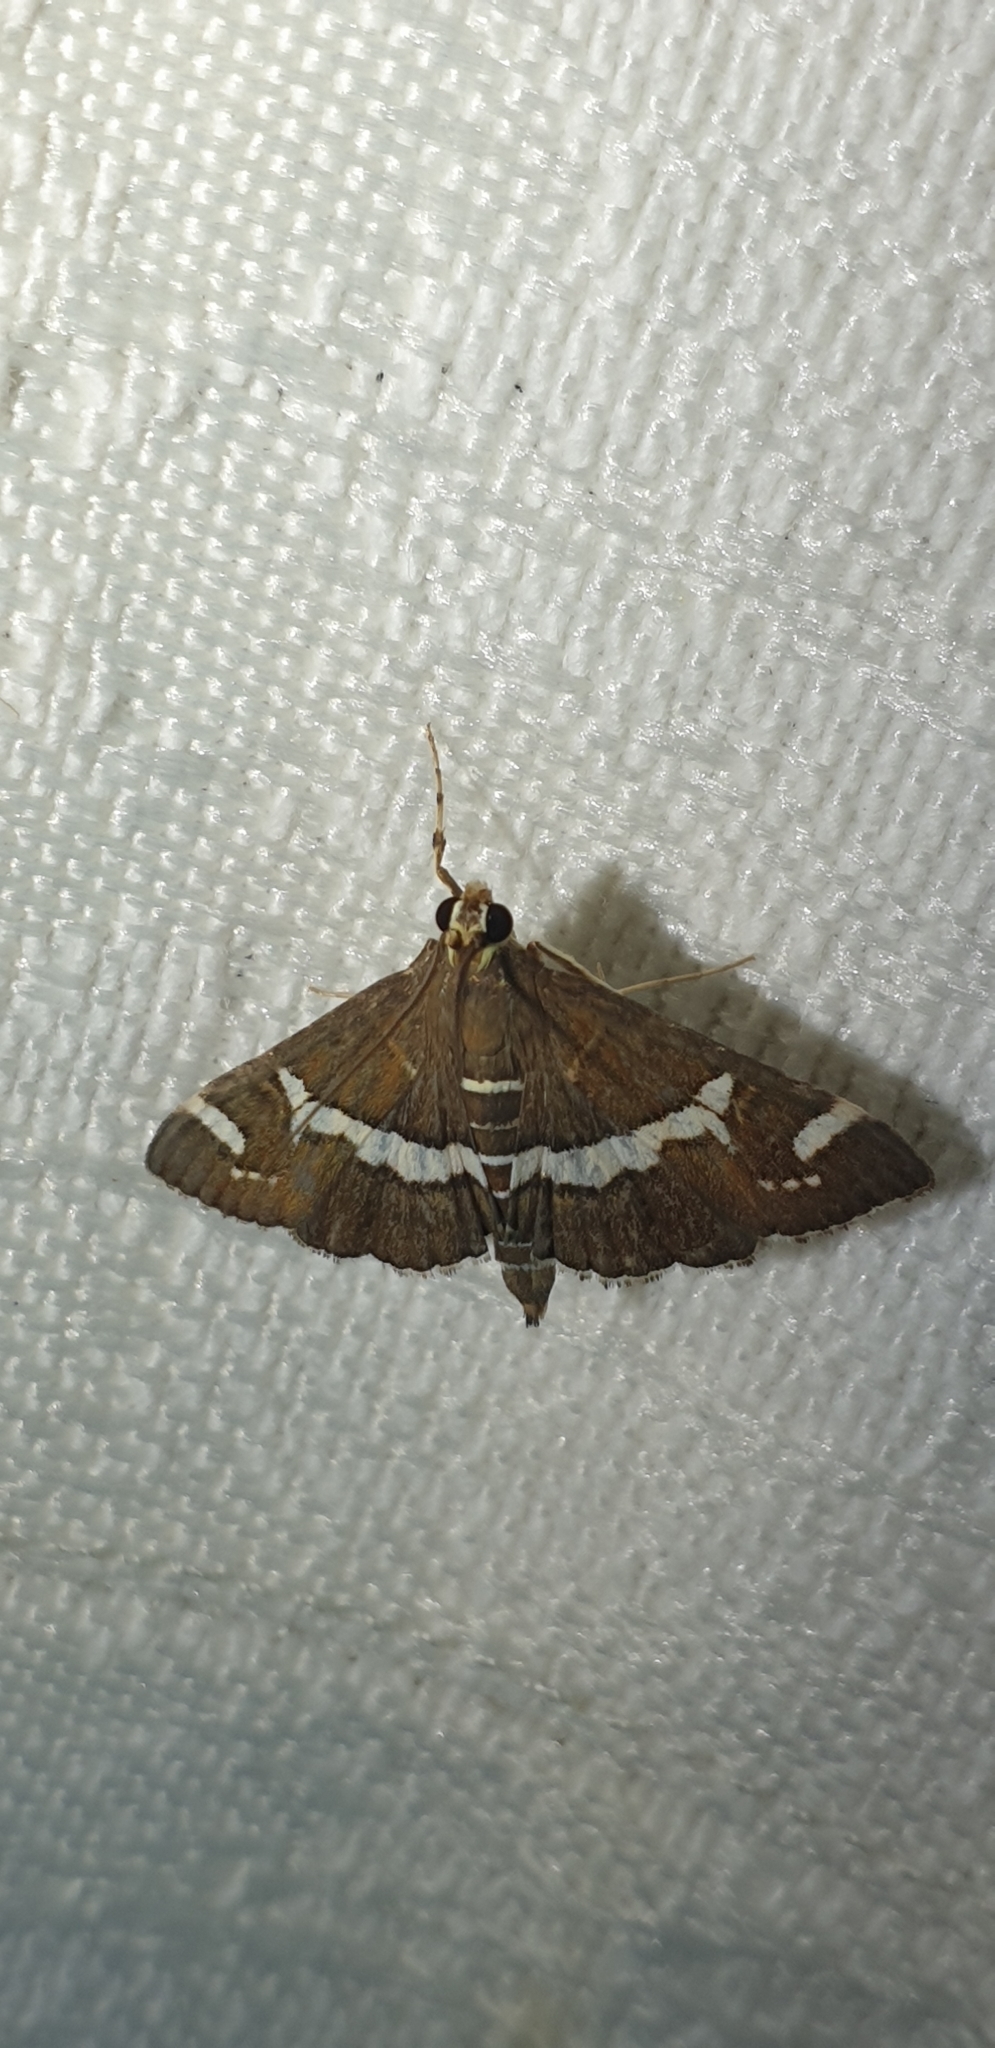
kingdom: Animalia
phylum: Arthropoda
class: Insecta
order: Lepidoptera
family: Crambidae
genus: Spoladea
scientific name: Spoladea recurvalis
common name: Beet webworm moth
